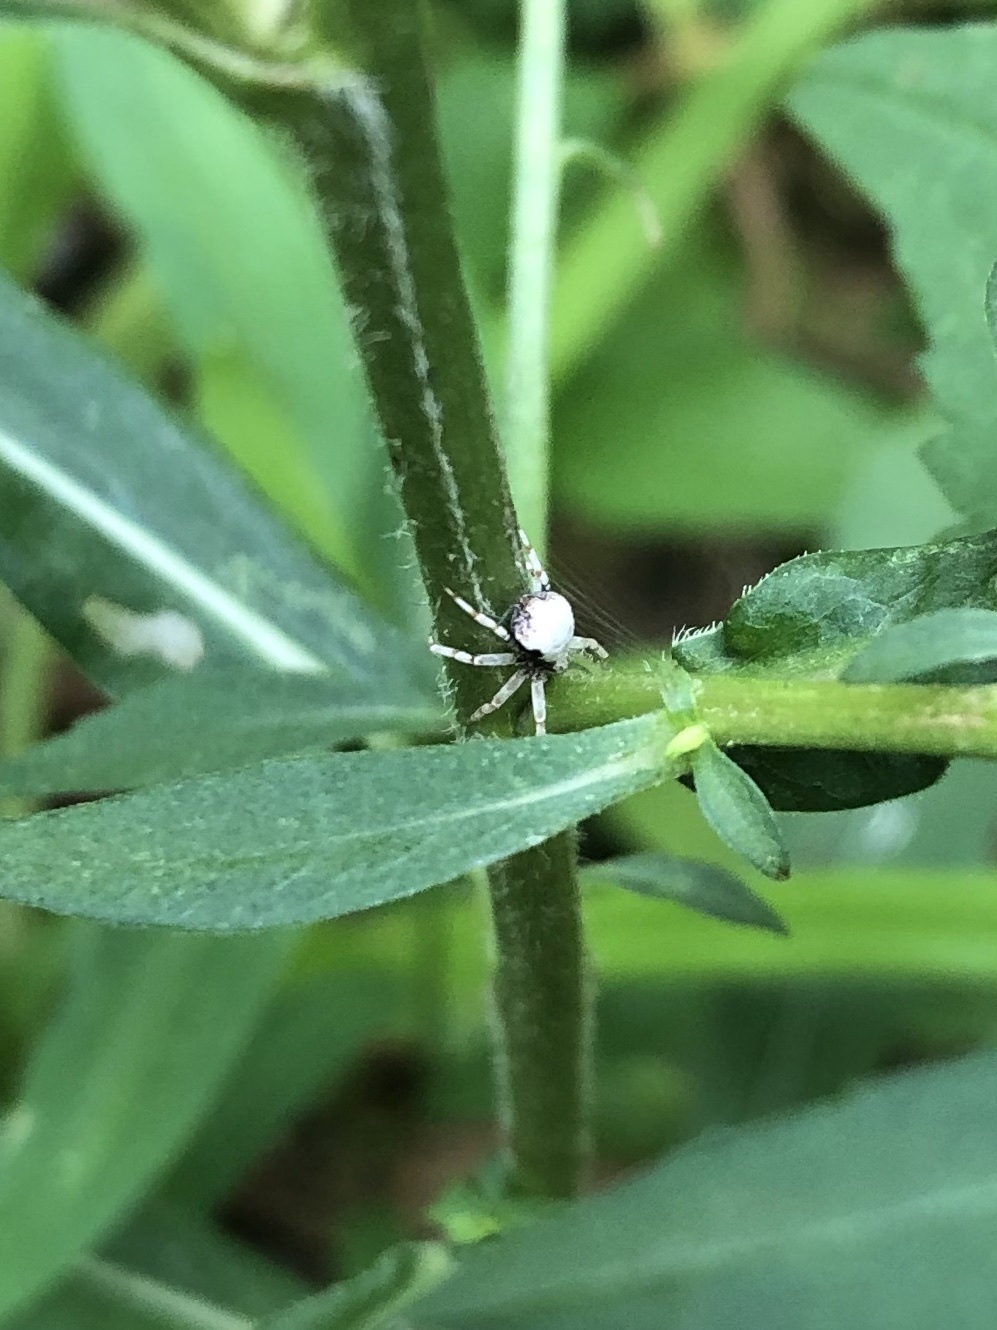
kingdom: Animalia
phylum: Arthropoda
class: Arachnida
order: Araneae
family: Philodromidae
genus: Philodromus
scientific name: Philodromus marxi
